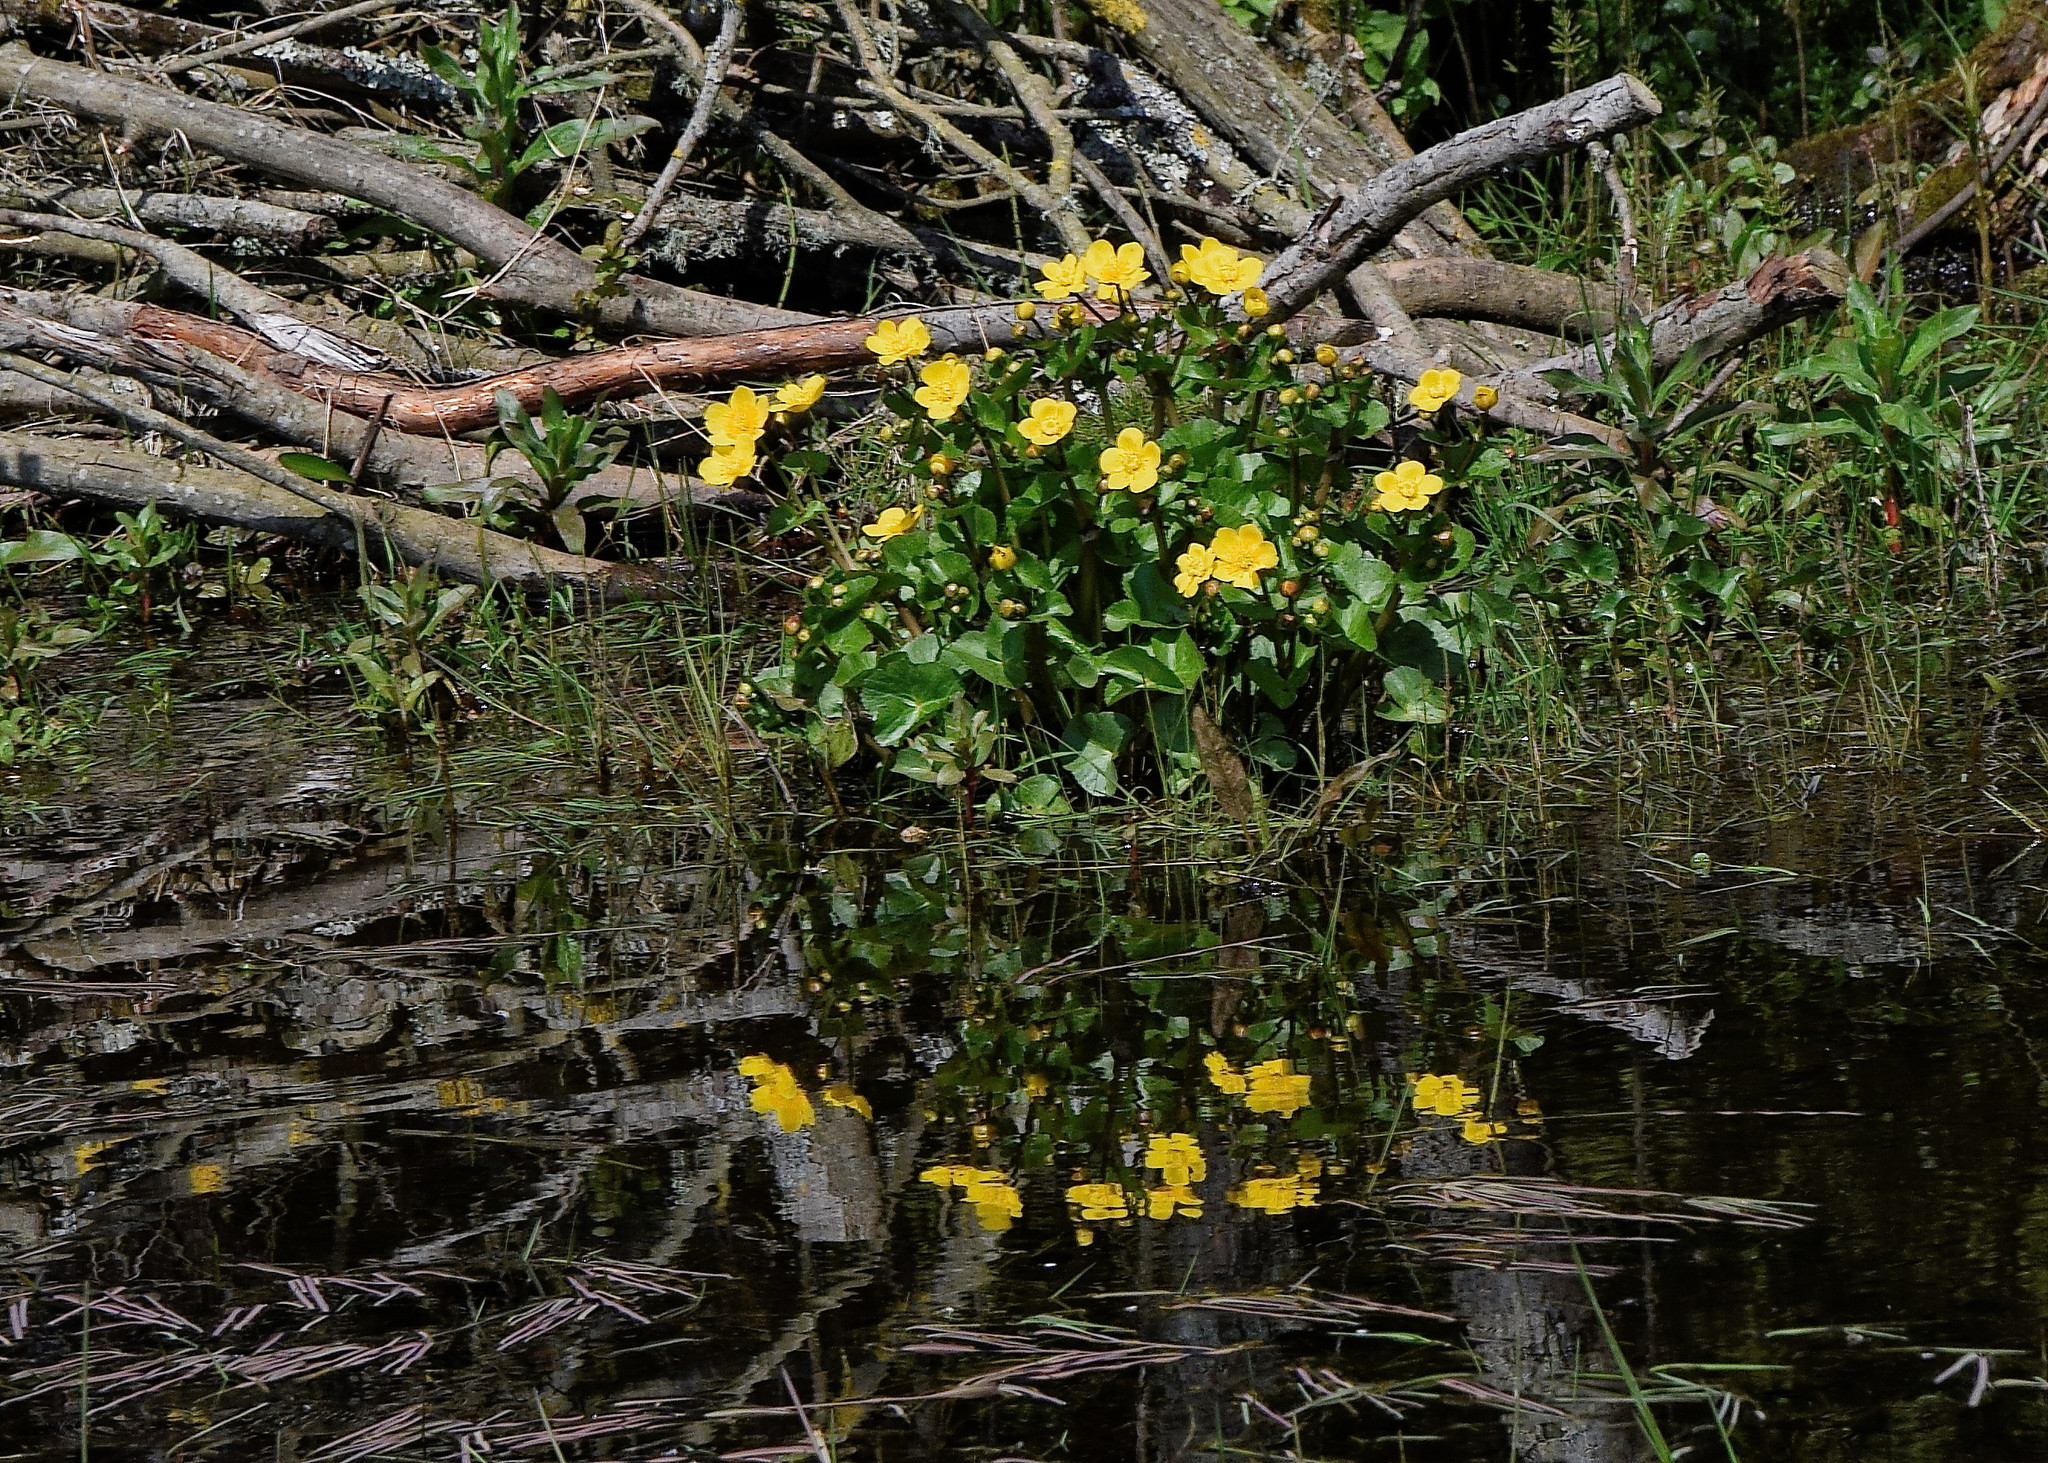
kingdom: Plantae
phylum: Tracheophyta
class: Magnoliopsida
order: Ranunculales
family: Ranunculaceae
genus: Caltha
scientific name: Caltha palustris
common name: Marsh marigold
